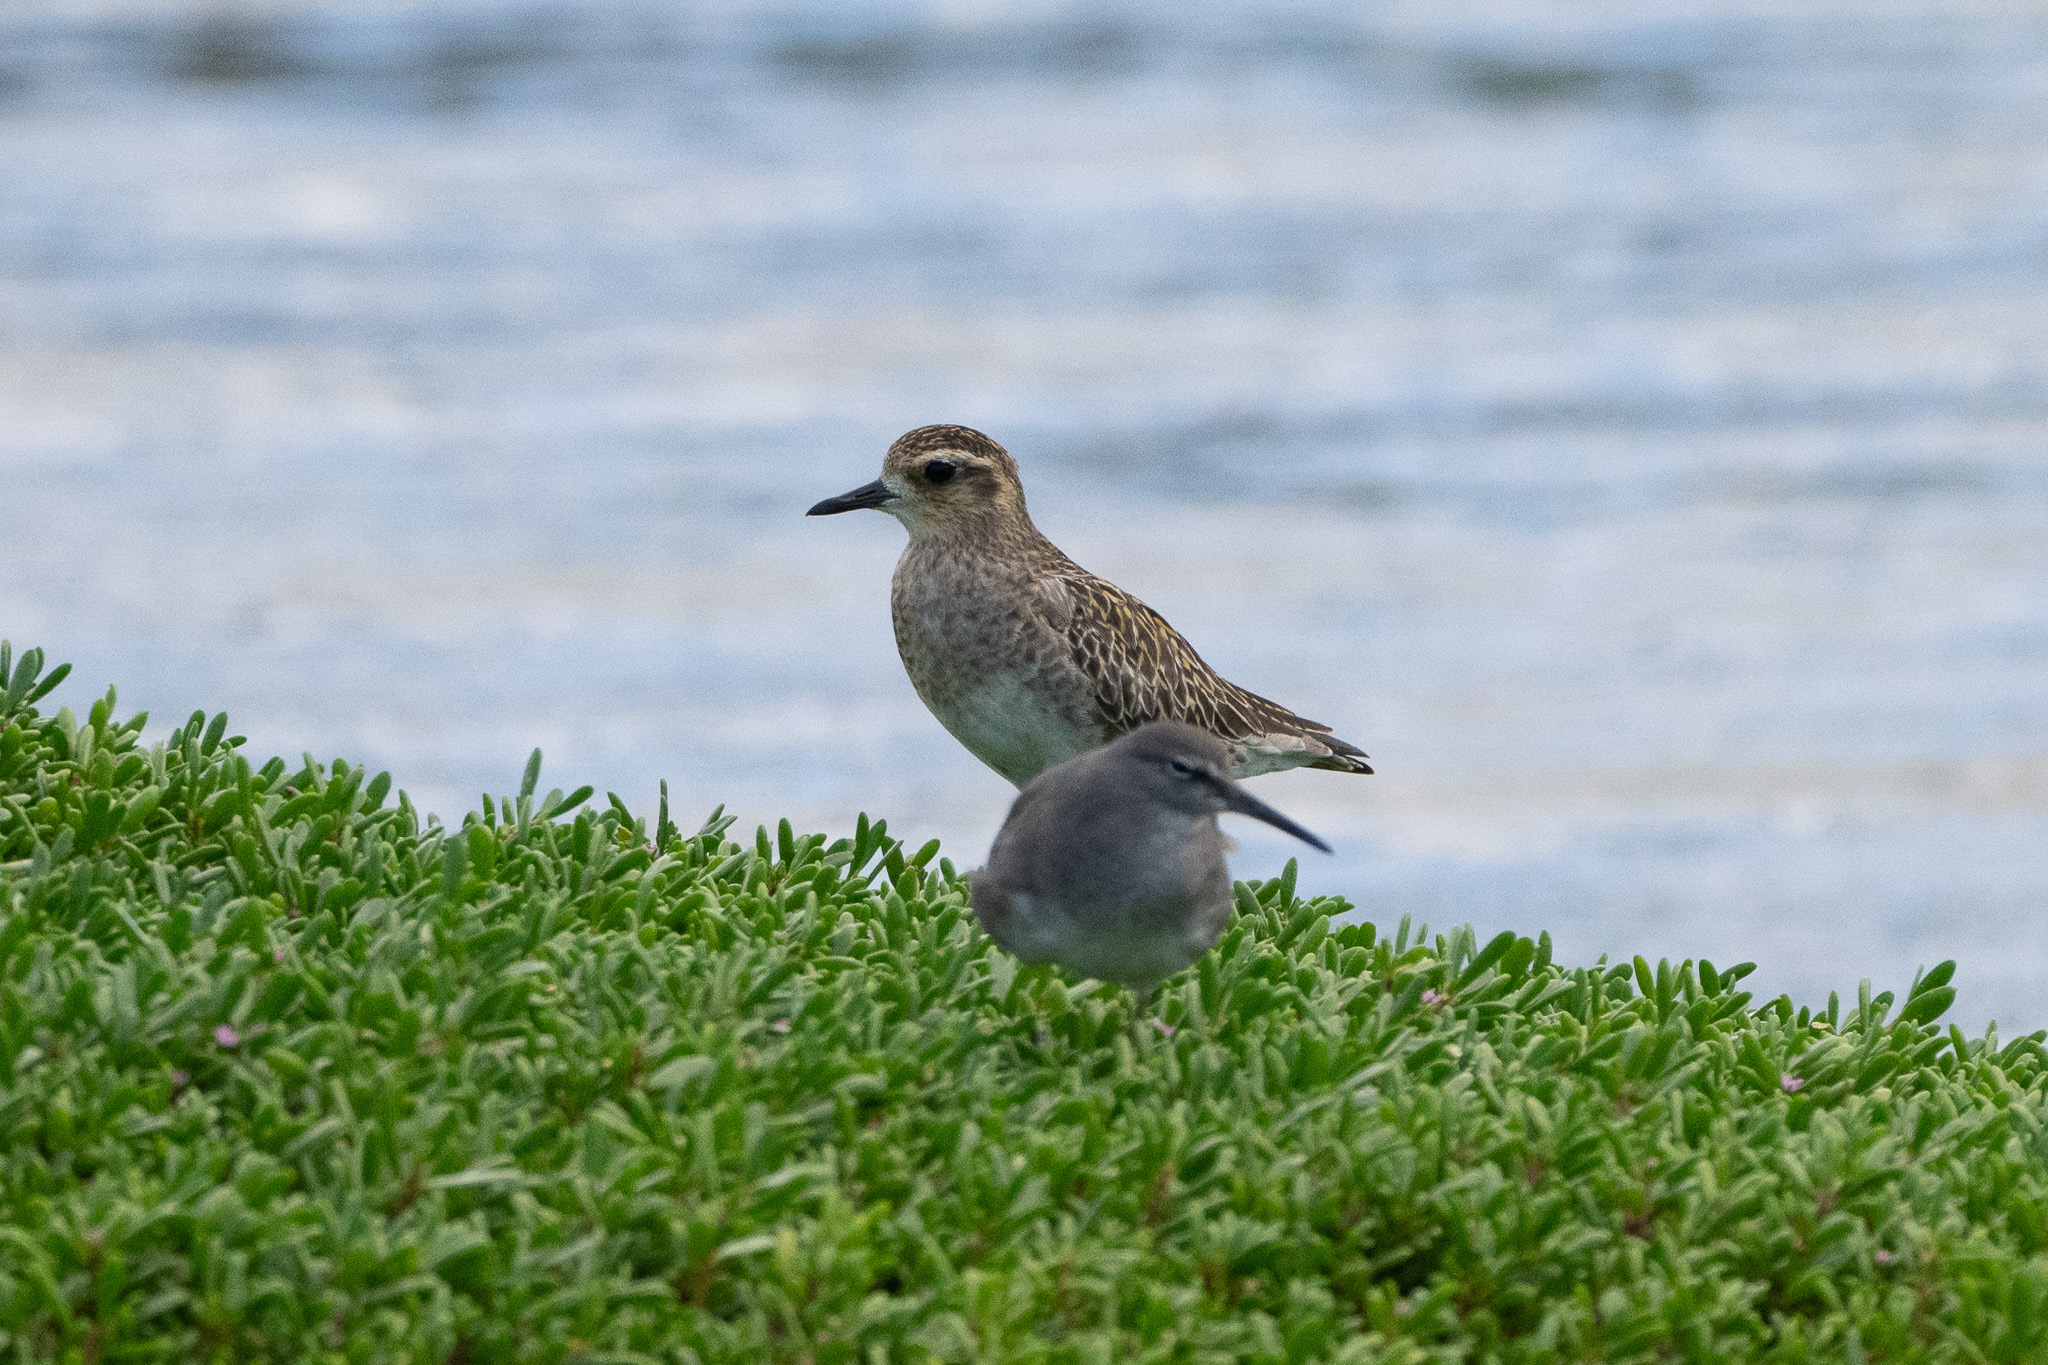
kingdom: Animalia
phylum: Chordata
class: Aves
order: Charadriiformes
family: Scolopacidae
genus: Tringa
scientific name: Tringa incana
